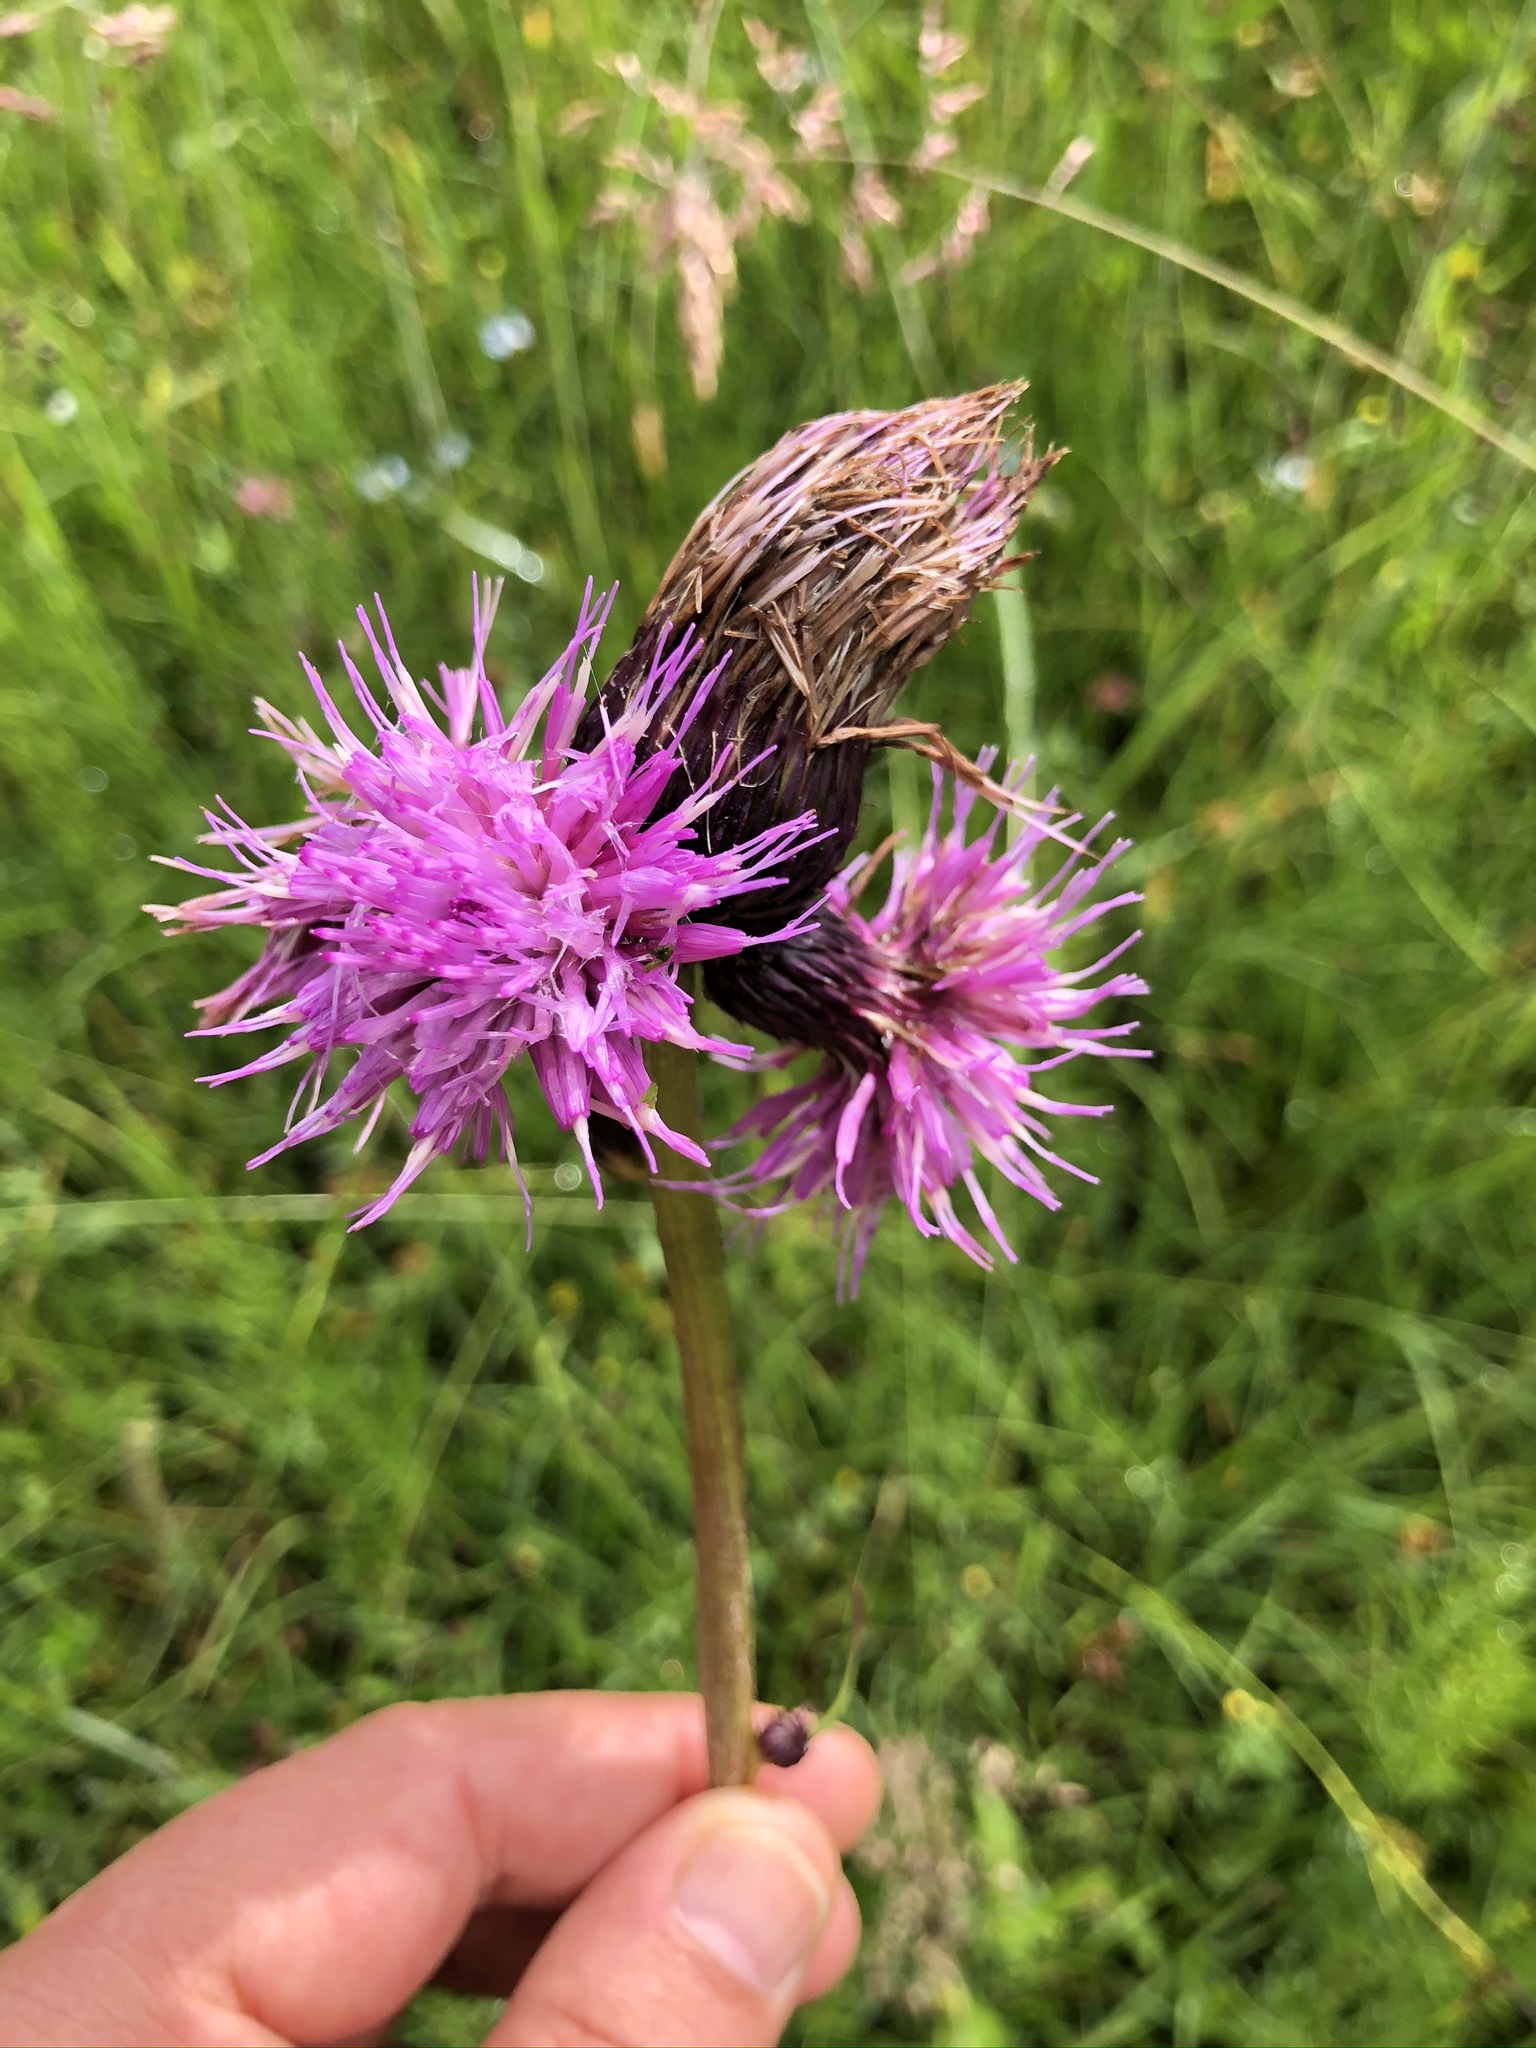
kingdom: Plantae
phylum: Tracheophyta
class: Magnoliopsida
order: Asterales
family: Asteraceae
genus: Cirsium
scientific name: Cirsium rivulare
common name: Brook thistle
